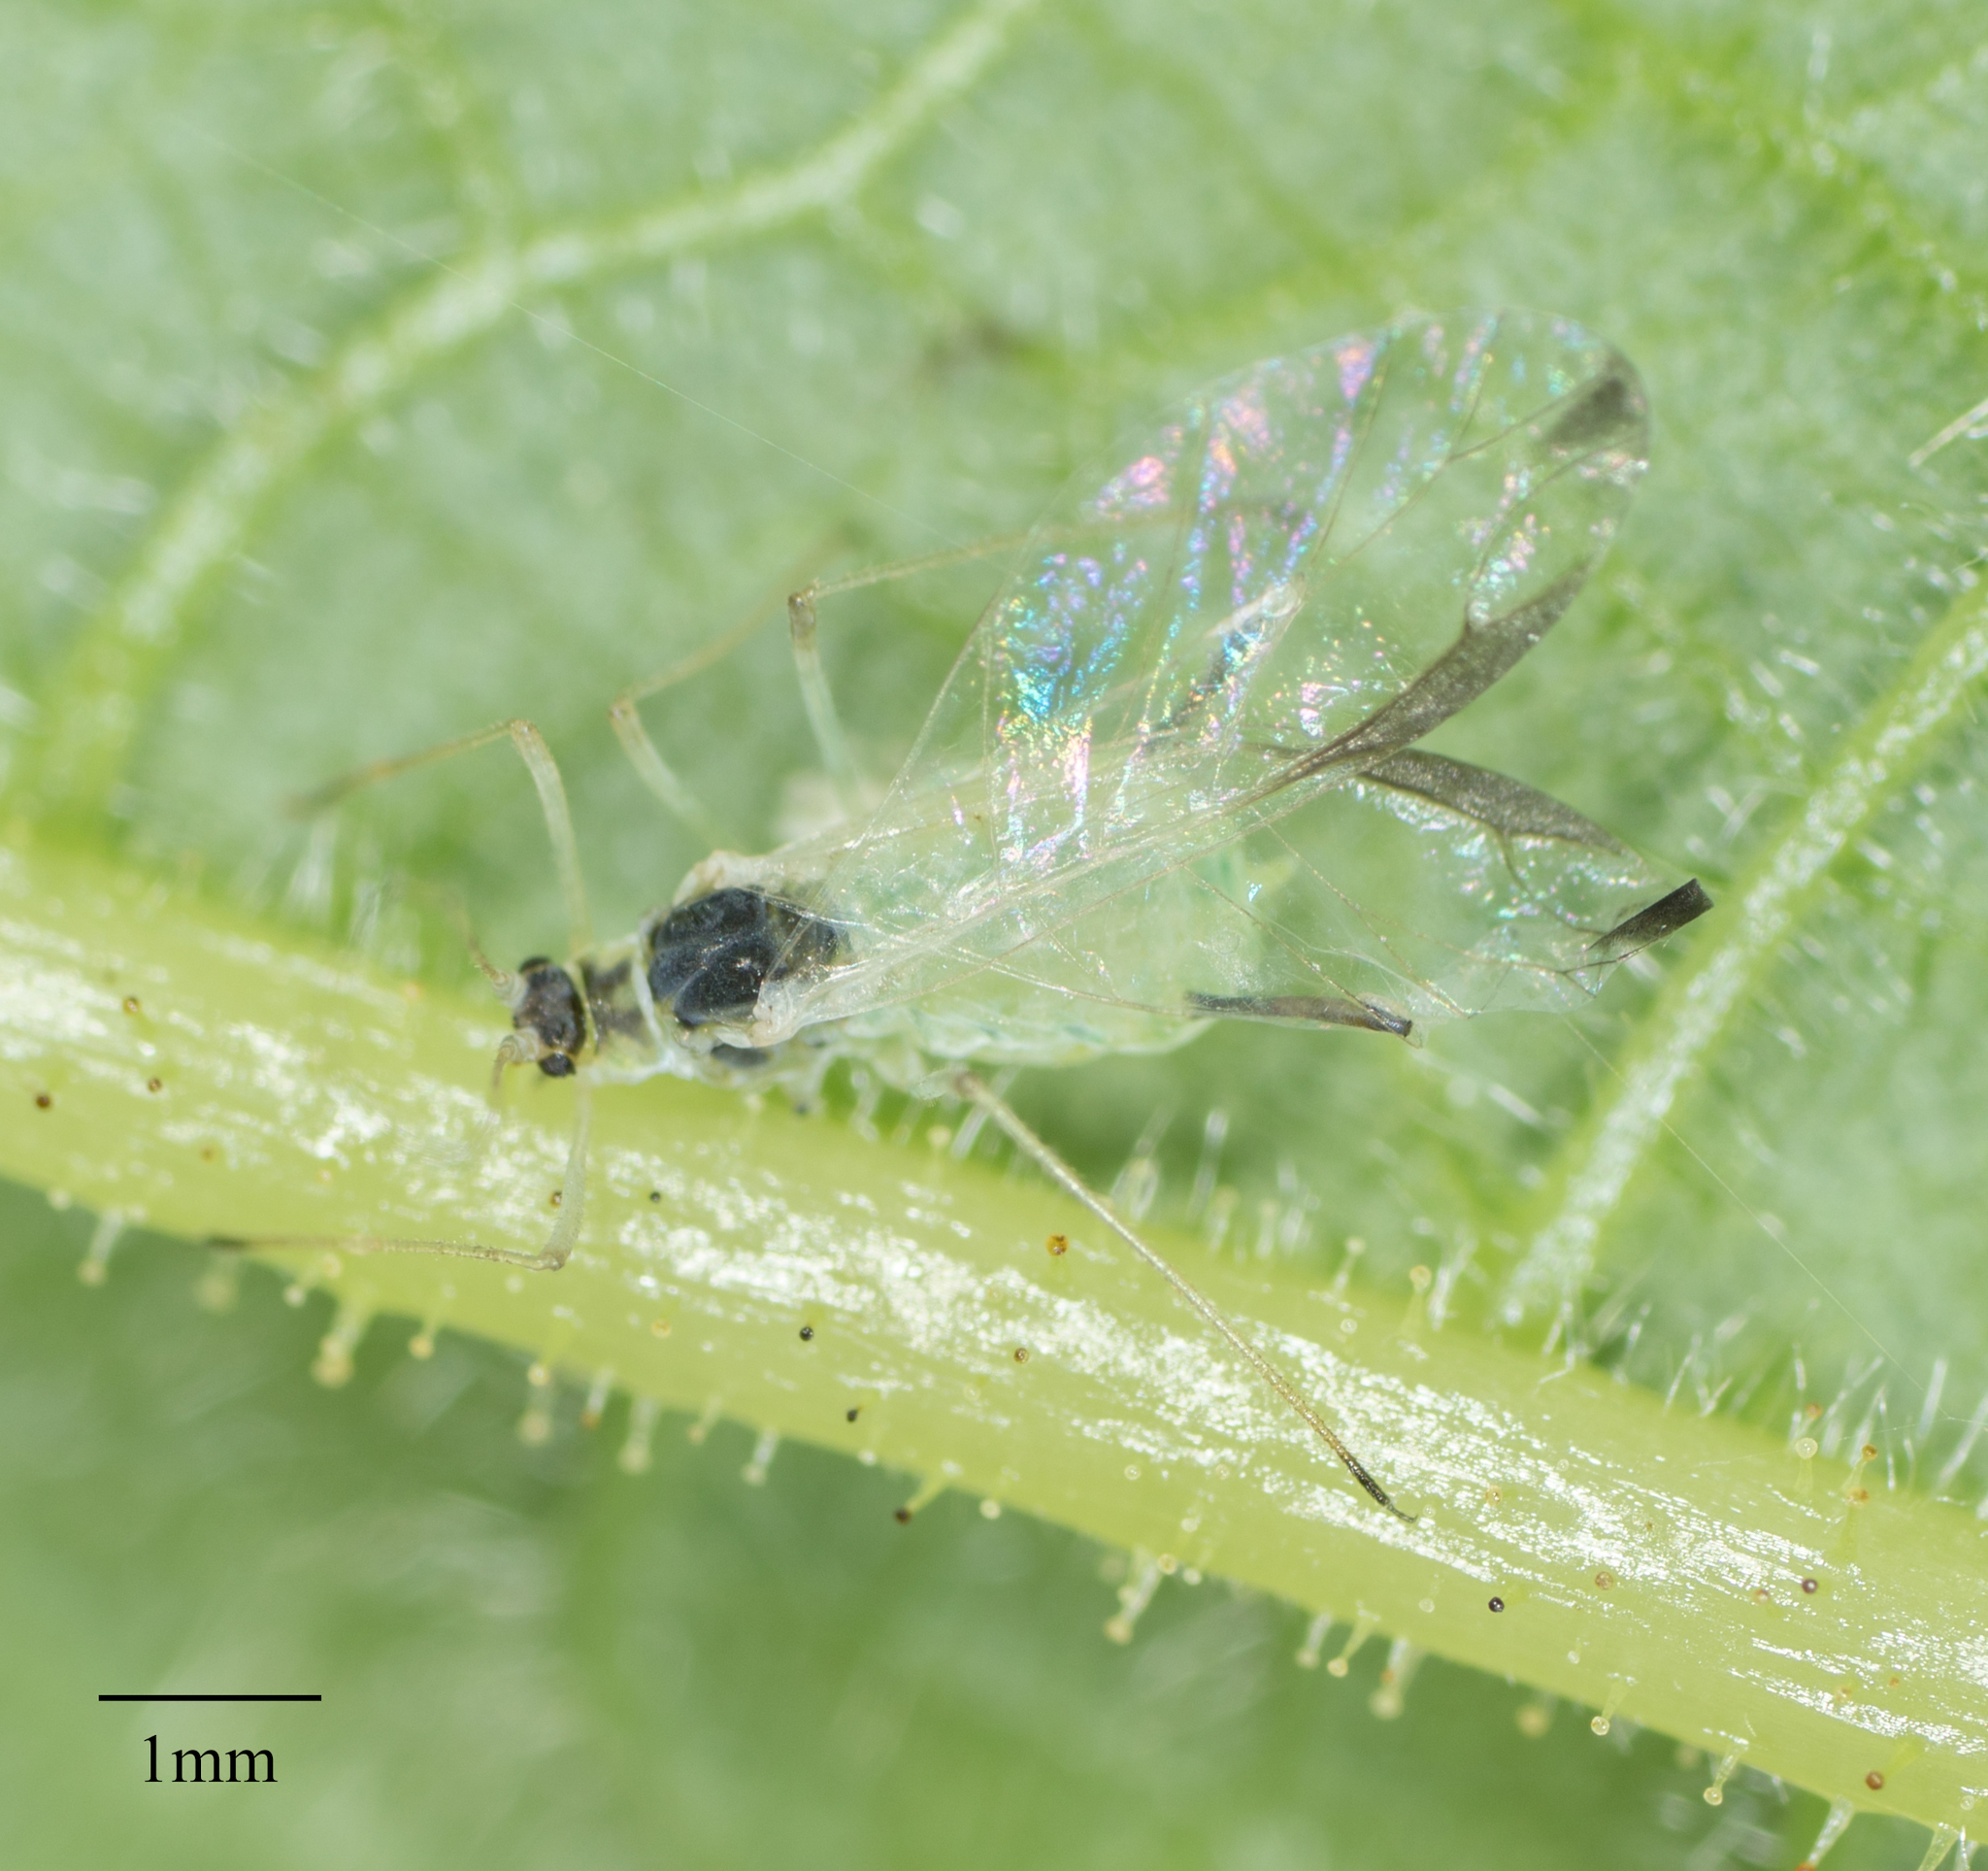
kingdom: Animalia
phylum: Arthropoda
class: Insecta
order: Hemiptera
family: Aphididae
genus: Illinoia
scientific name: Illinoia rubicola
